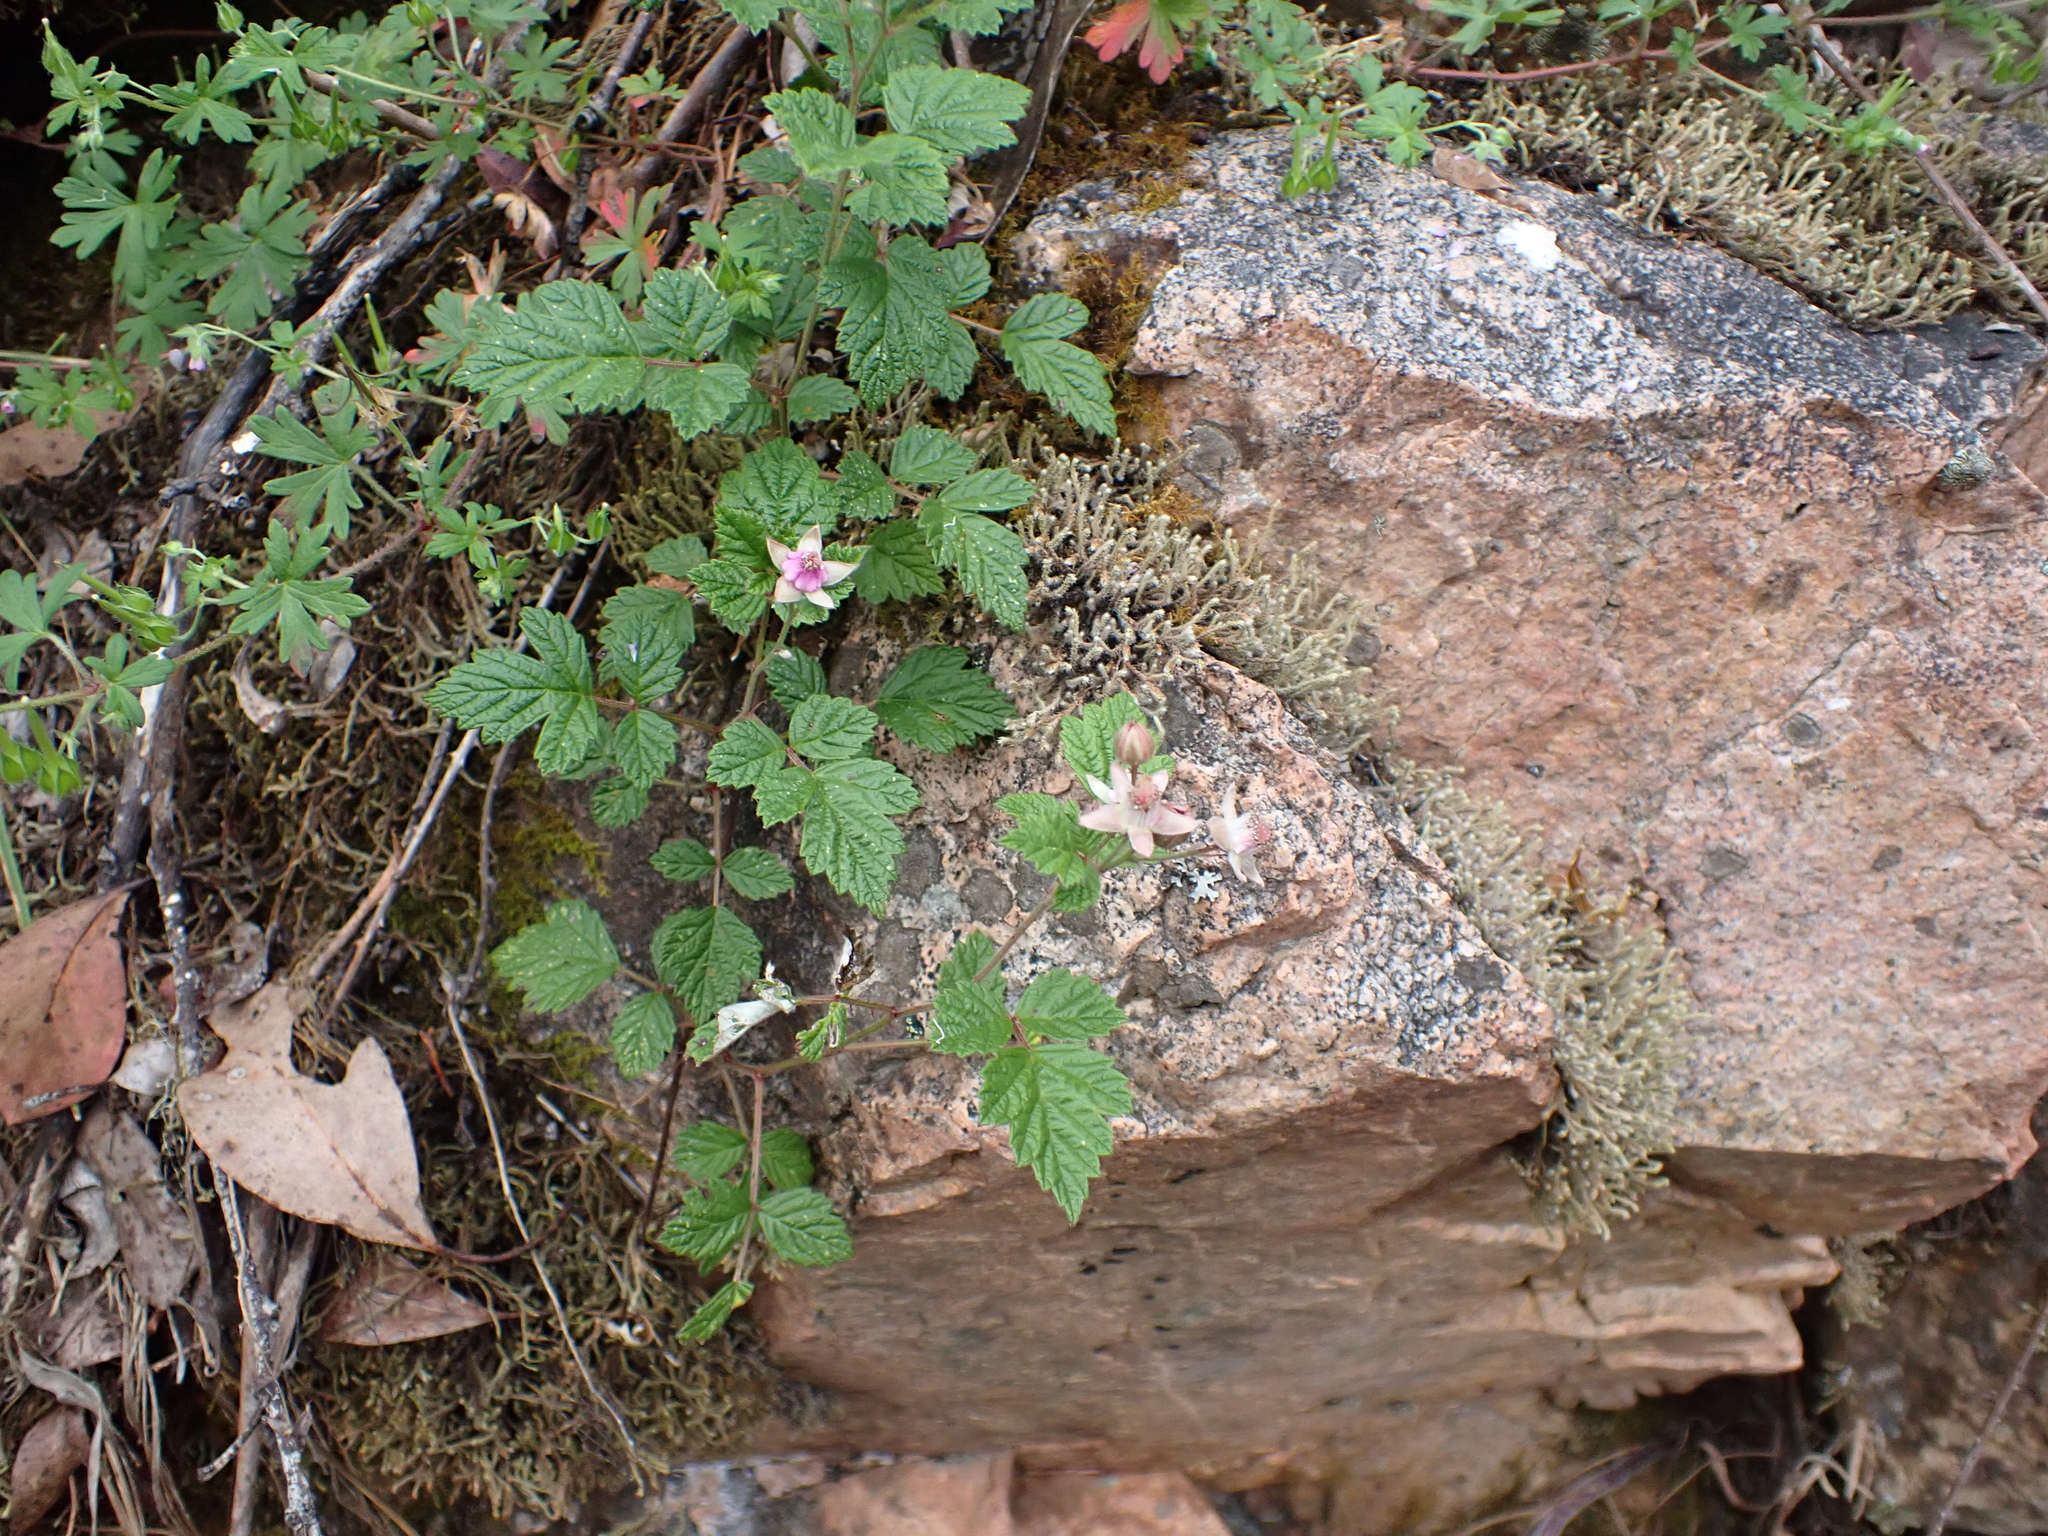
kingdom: Plantae
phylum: Tracheophyta
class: Magnoliopsida
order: Rosales
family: Rosaceae
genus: Rubus
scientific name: Rubus parvifolius
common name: Threeleaf blackberry
